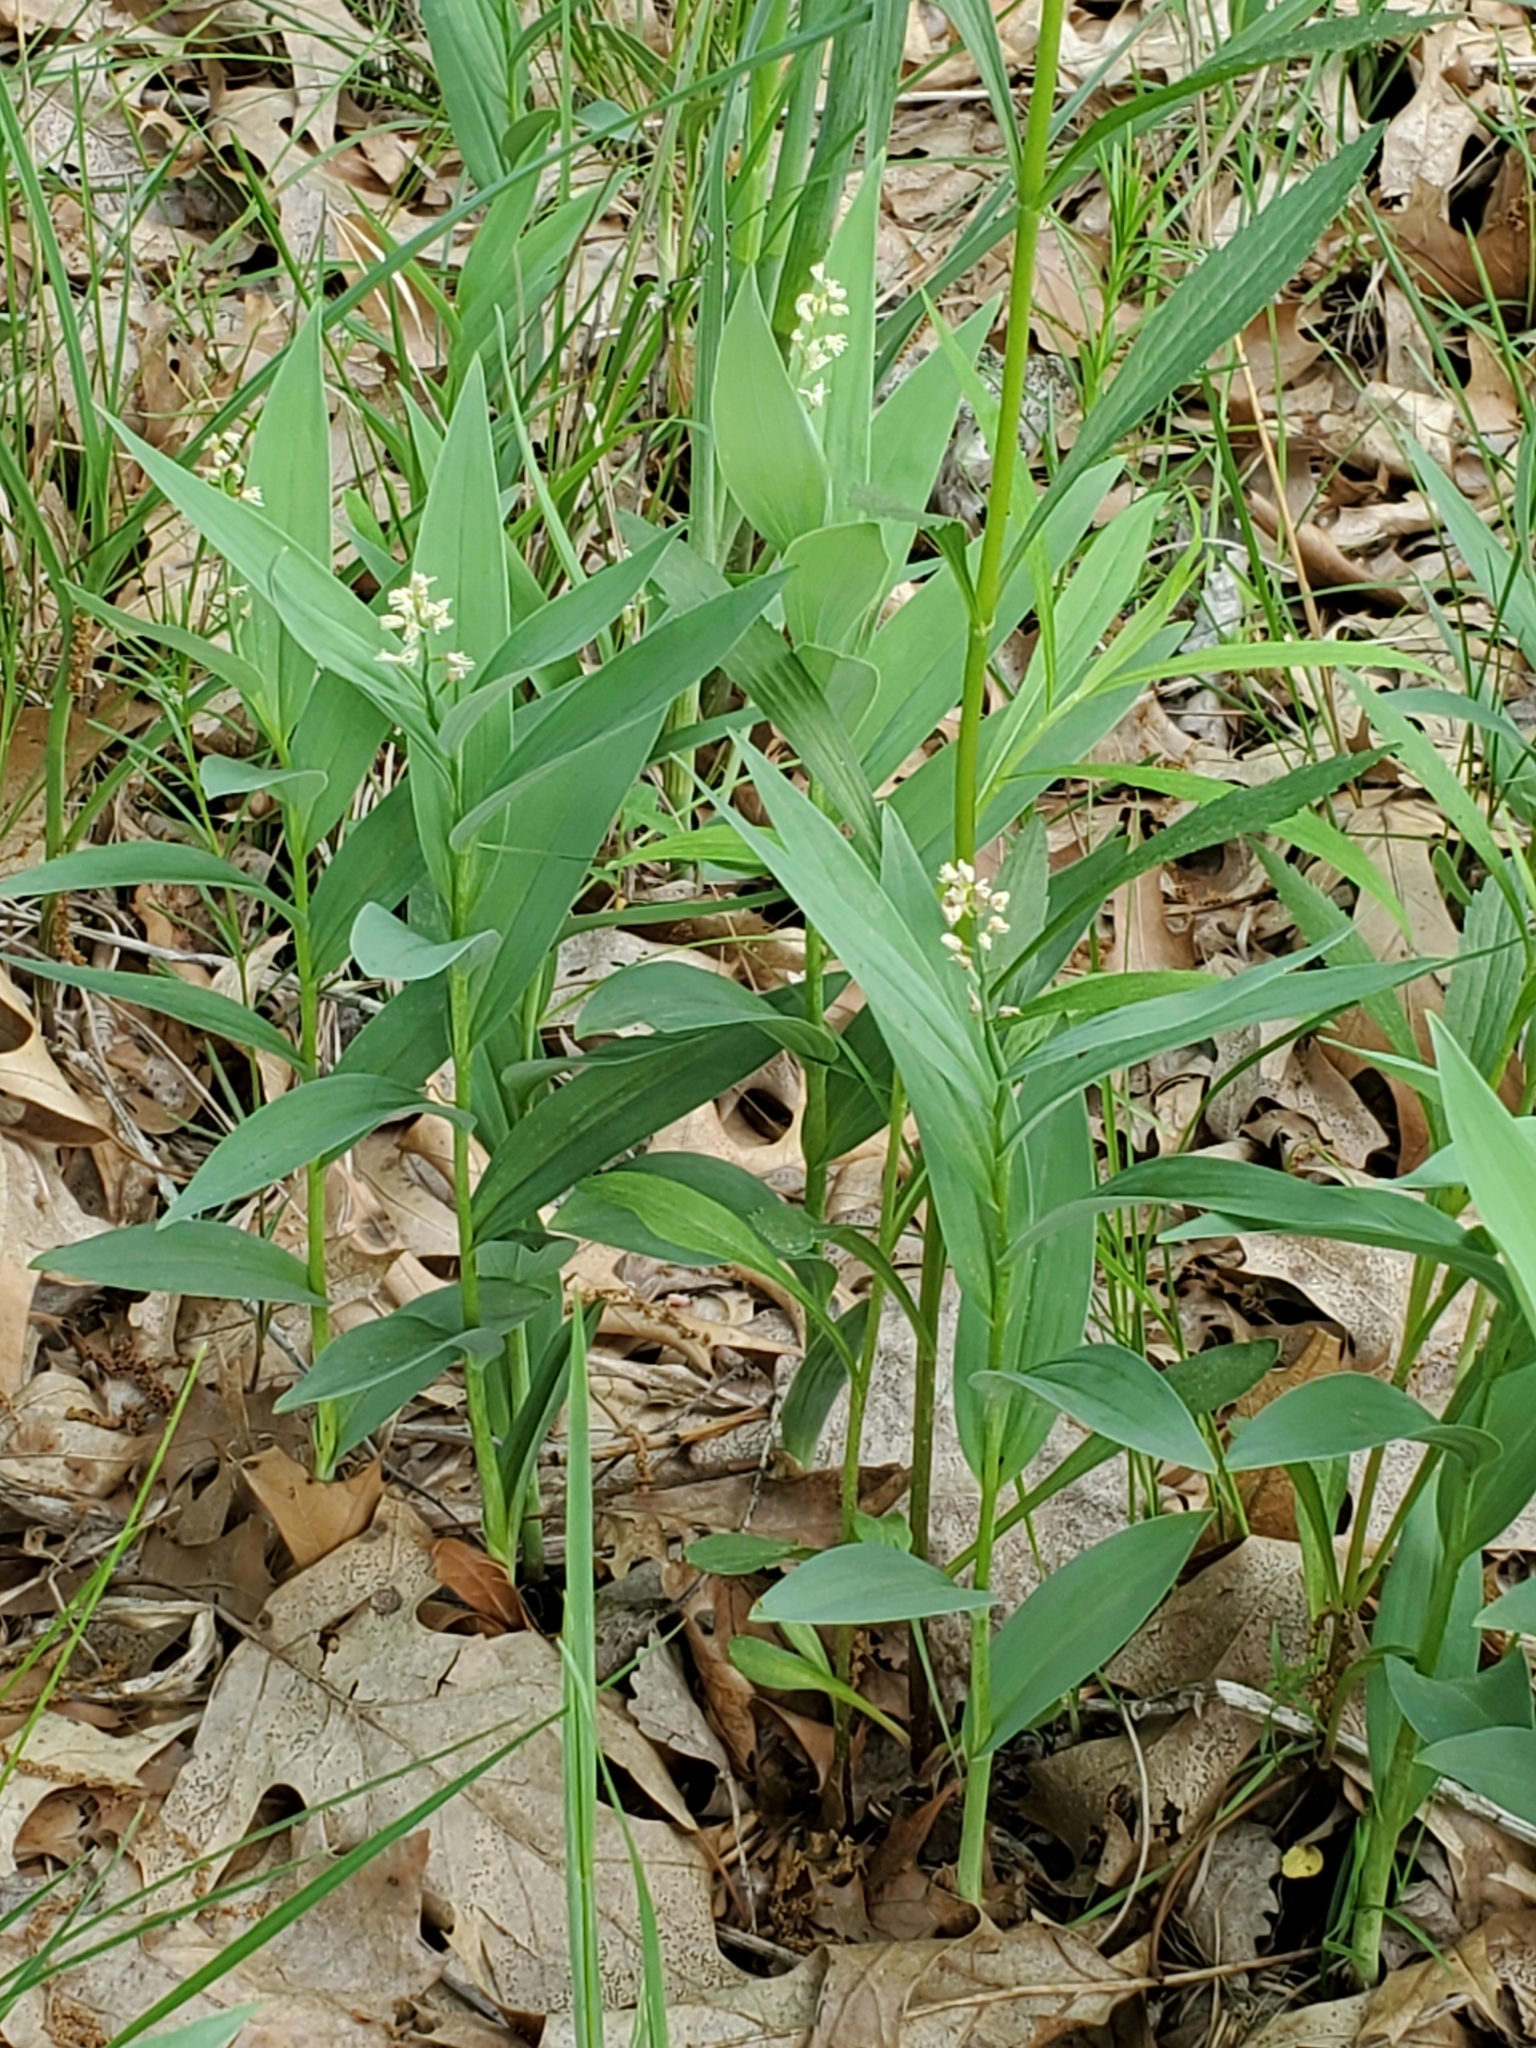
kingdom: Plantae
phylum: Tracheophyta
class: Liliopsida
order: Asparagales
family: Asparagaceae
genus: Maianthemum
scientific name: Maianthemum stellatum
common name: Little false solomon's seal
